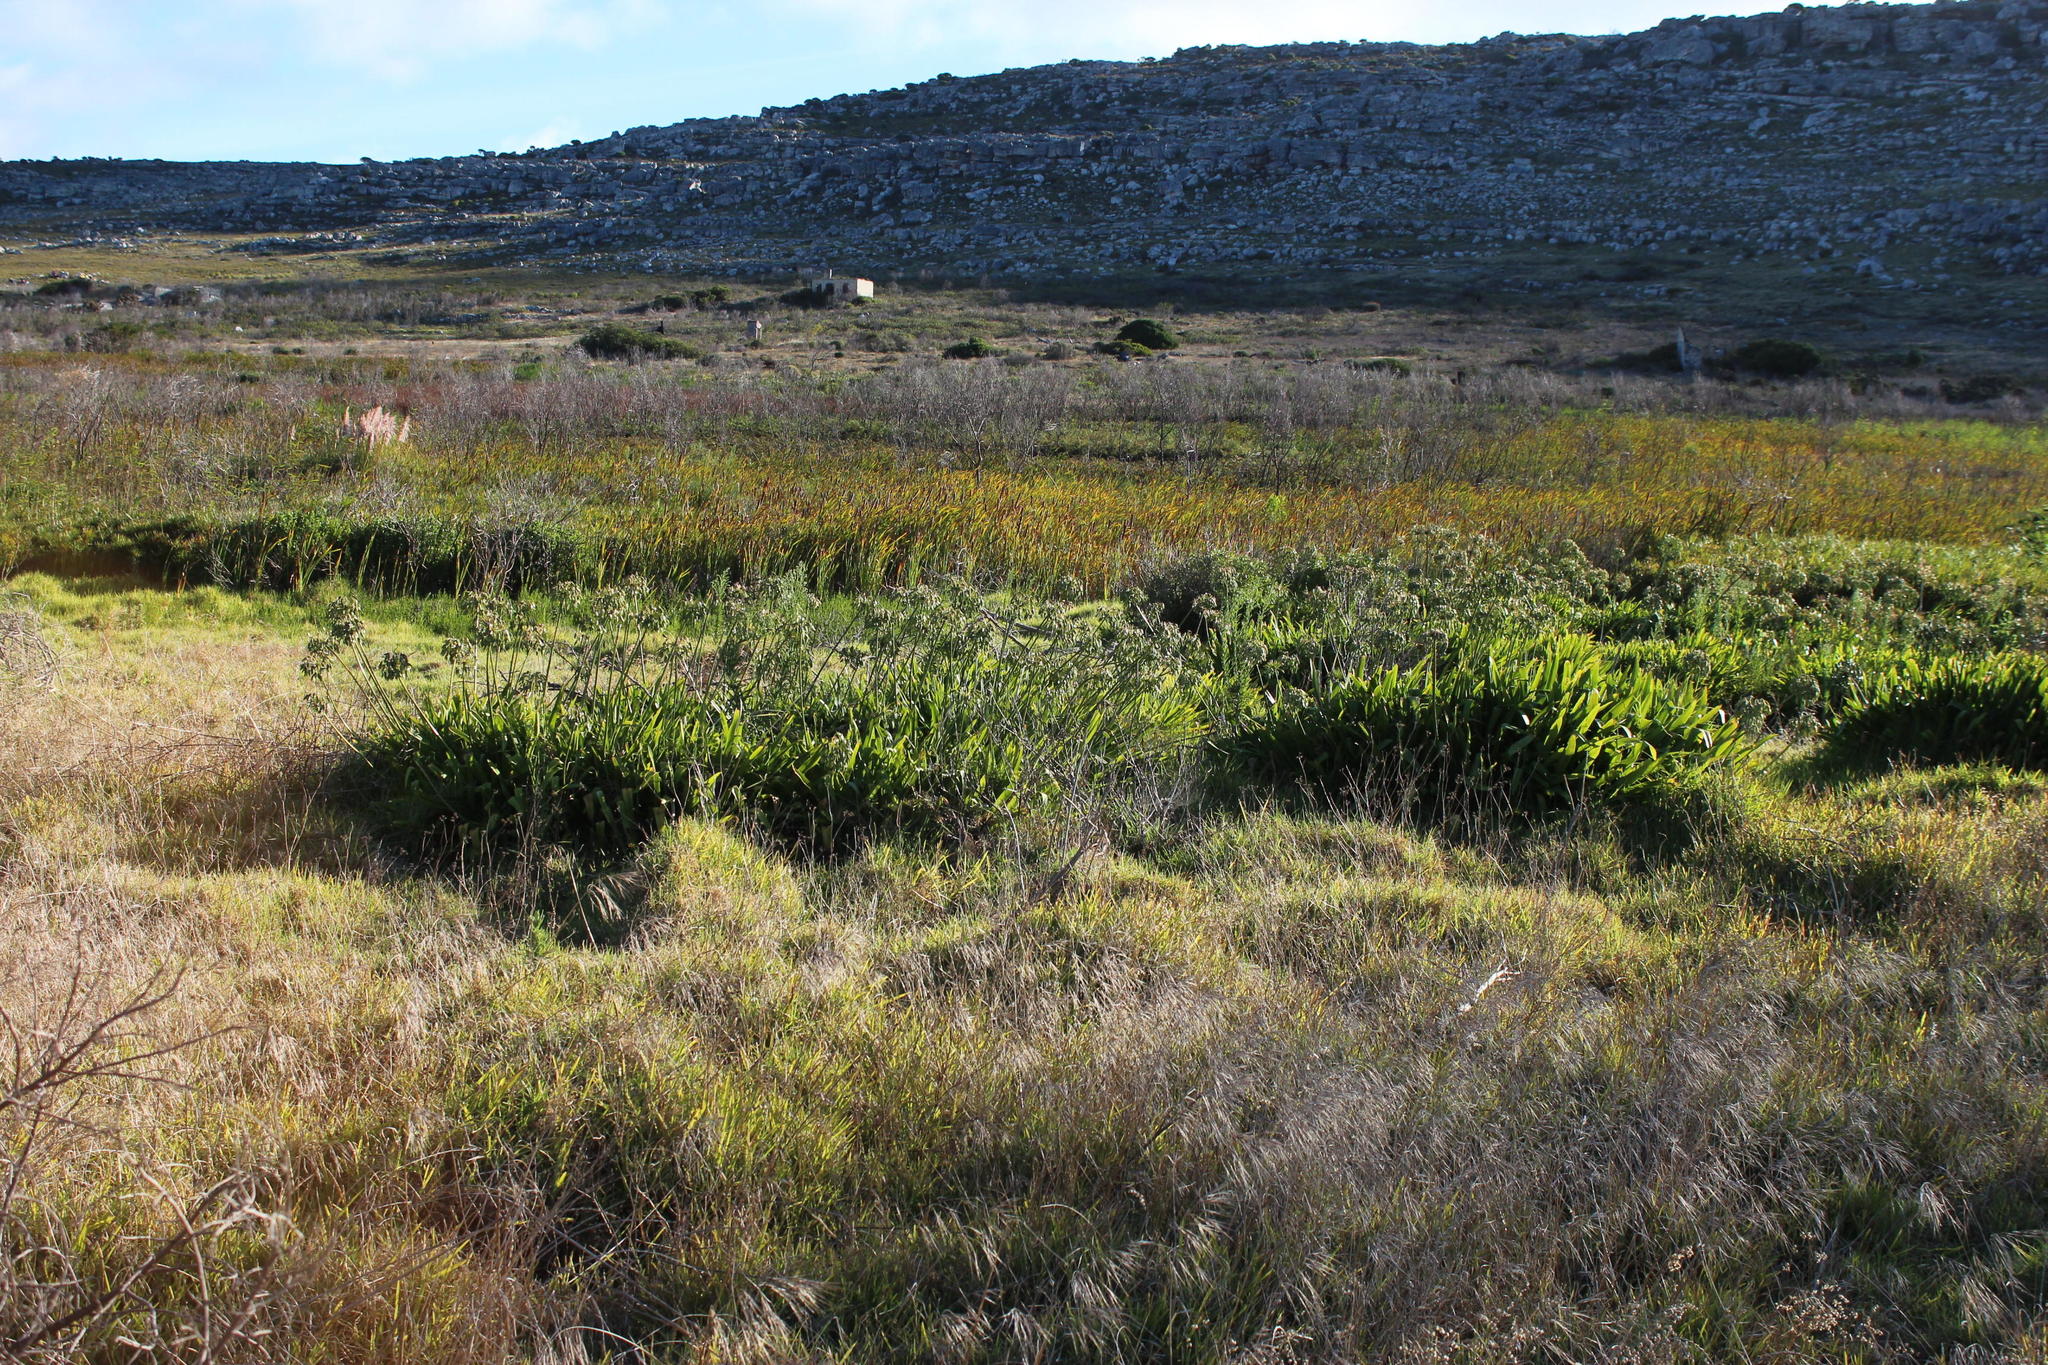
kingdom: Plantae
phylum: Tracheophyta
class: Liliopsida
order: Asparagales
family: Amaryllidaceae
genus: Agapanthus
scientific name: Agapanthus praecox
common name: African-lily
